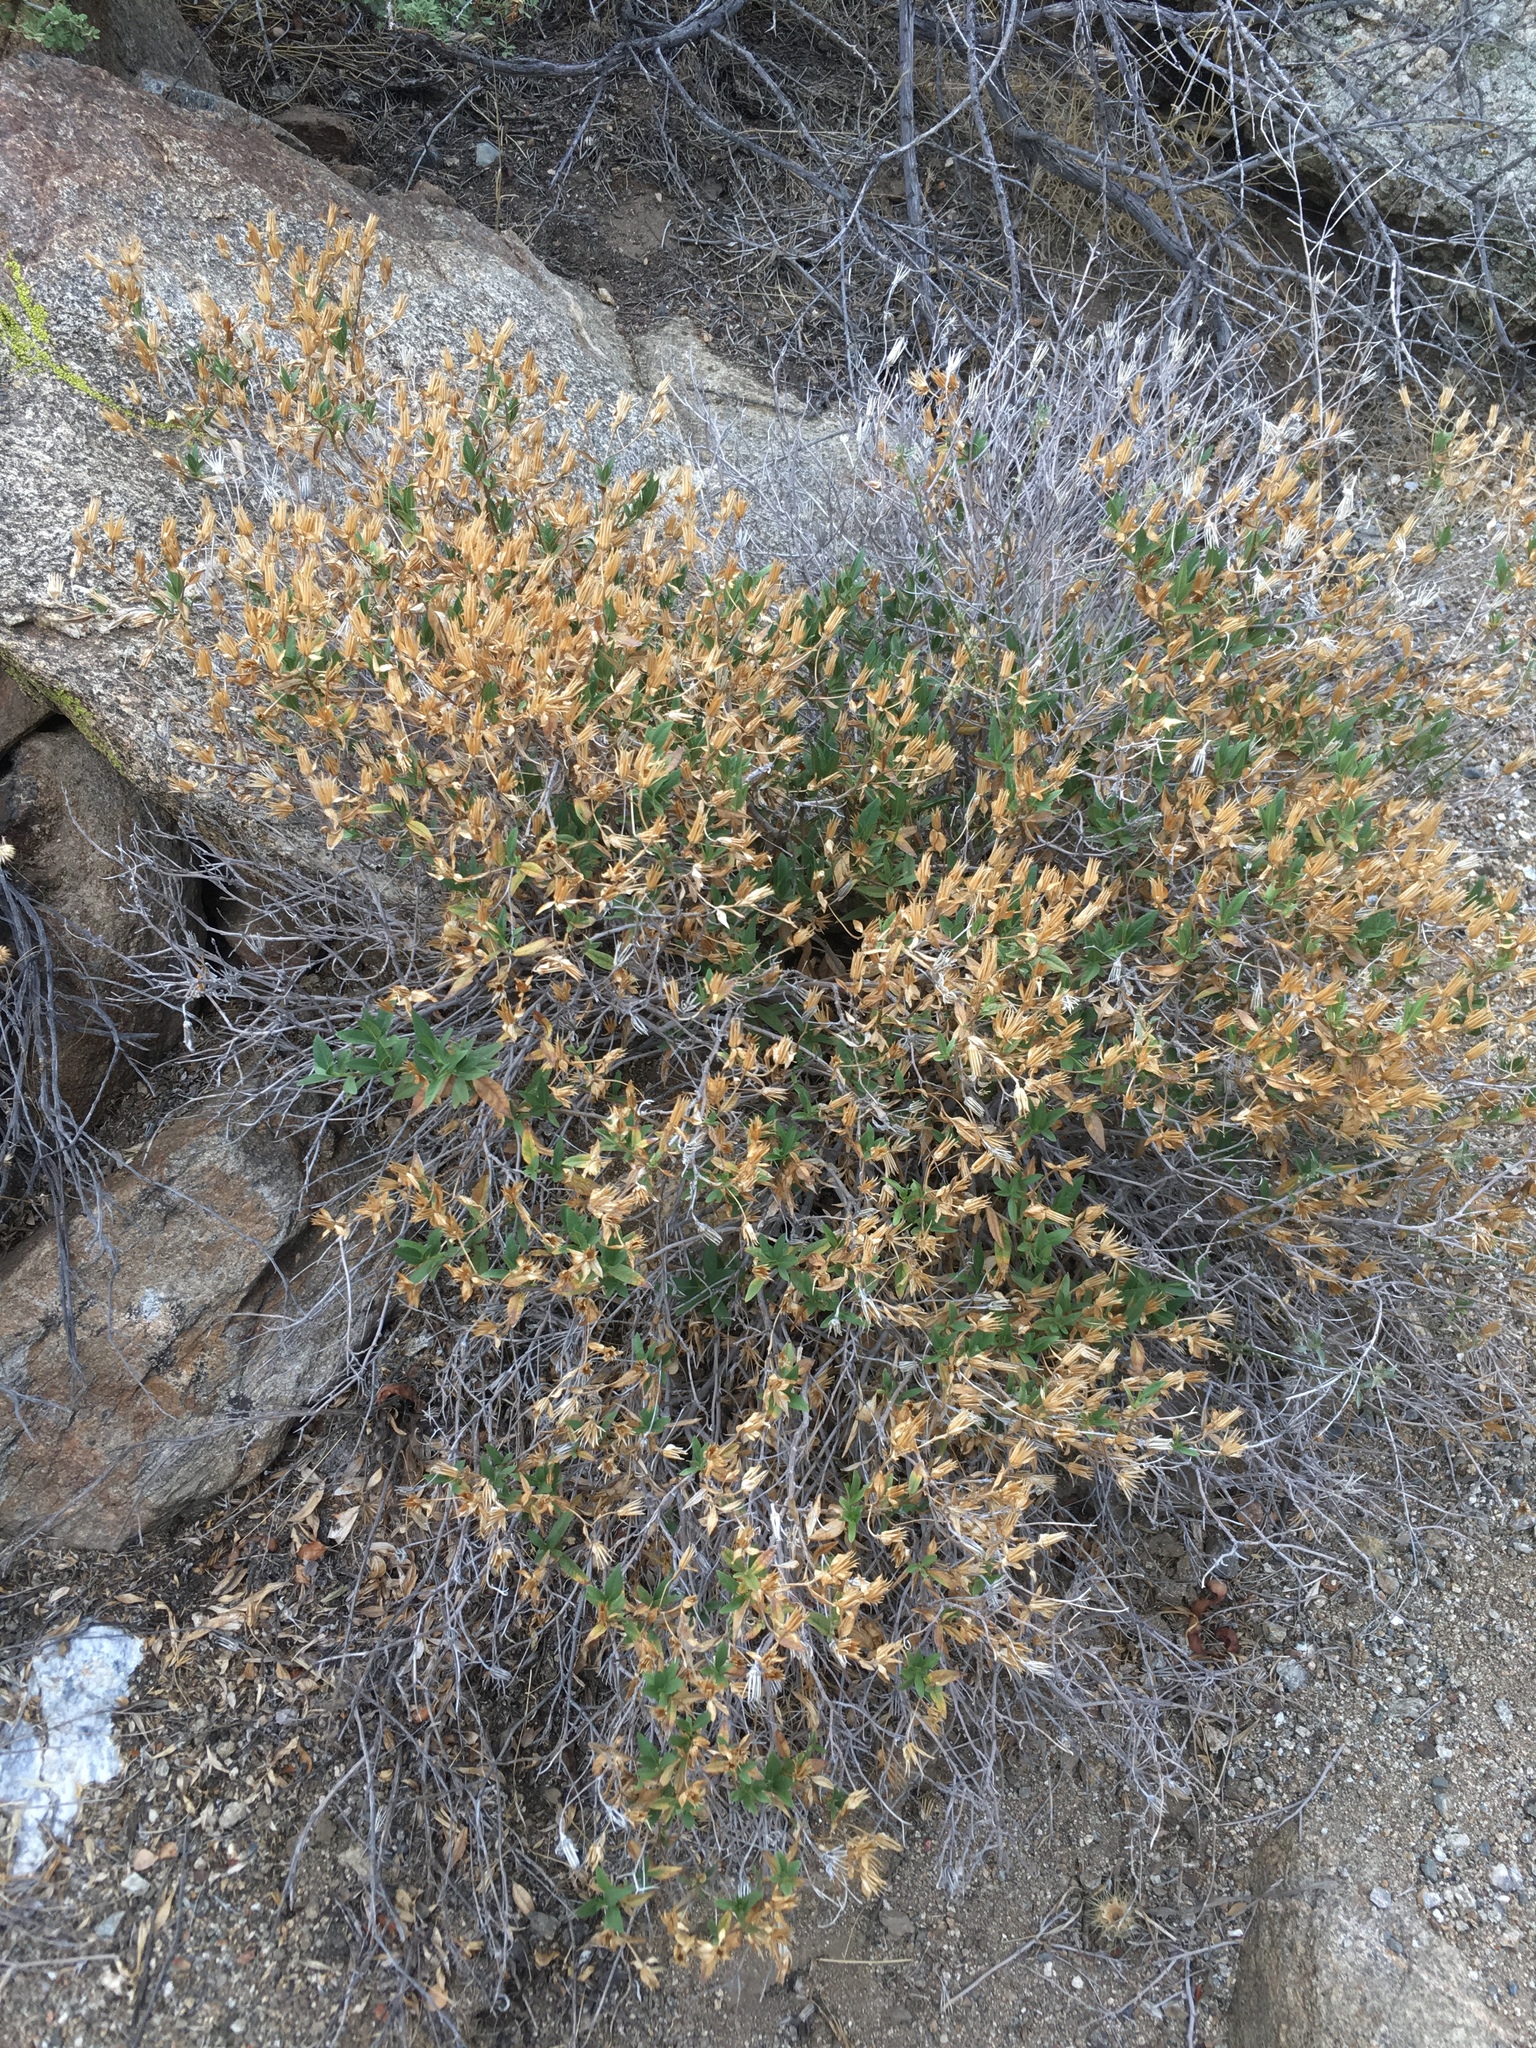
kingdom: Plantae
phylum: Tracheophyta
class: Magnoliopsida
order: Asterales
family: Asteraceae
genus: Trixis
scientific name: Trixis californica
